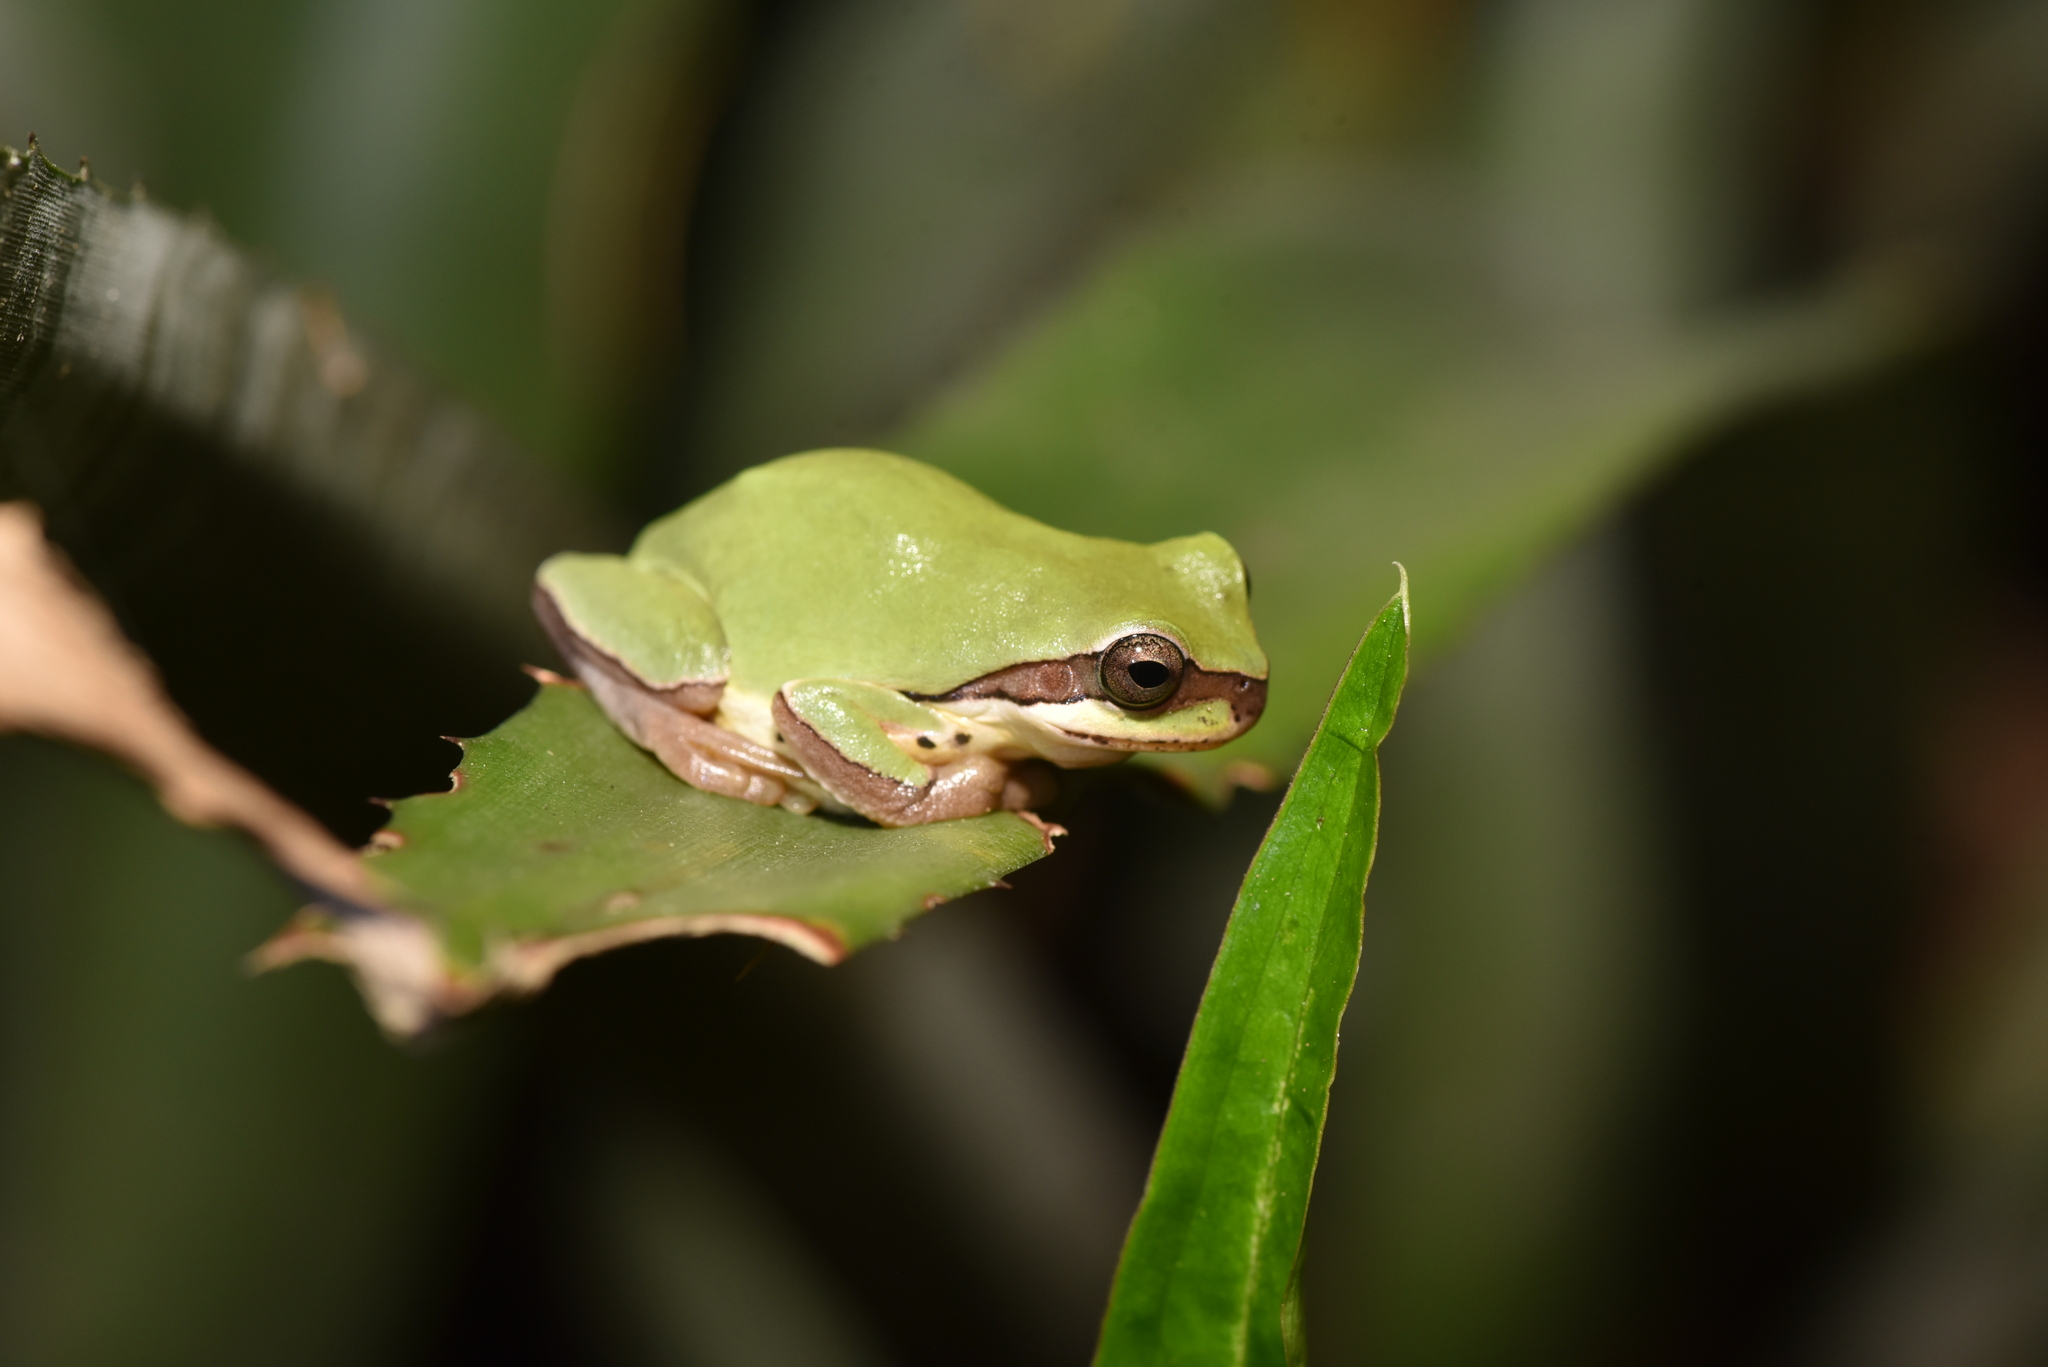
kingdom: Animalia
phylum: Chordata
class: Amphibia
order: Anura
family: Hylidae
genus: Hyla
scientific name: Hyla chinensis
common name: Common chinese treefrog
